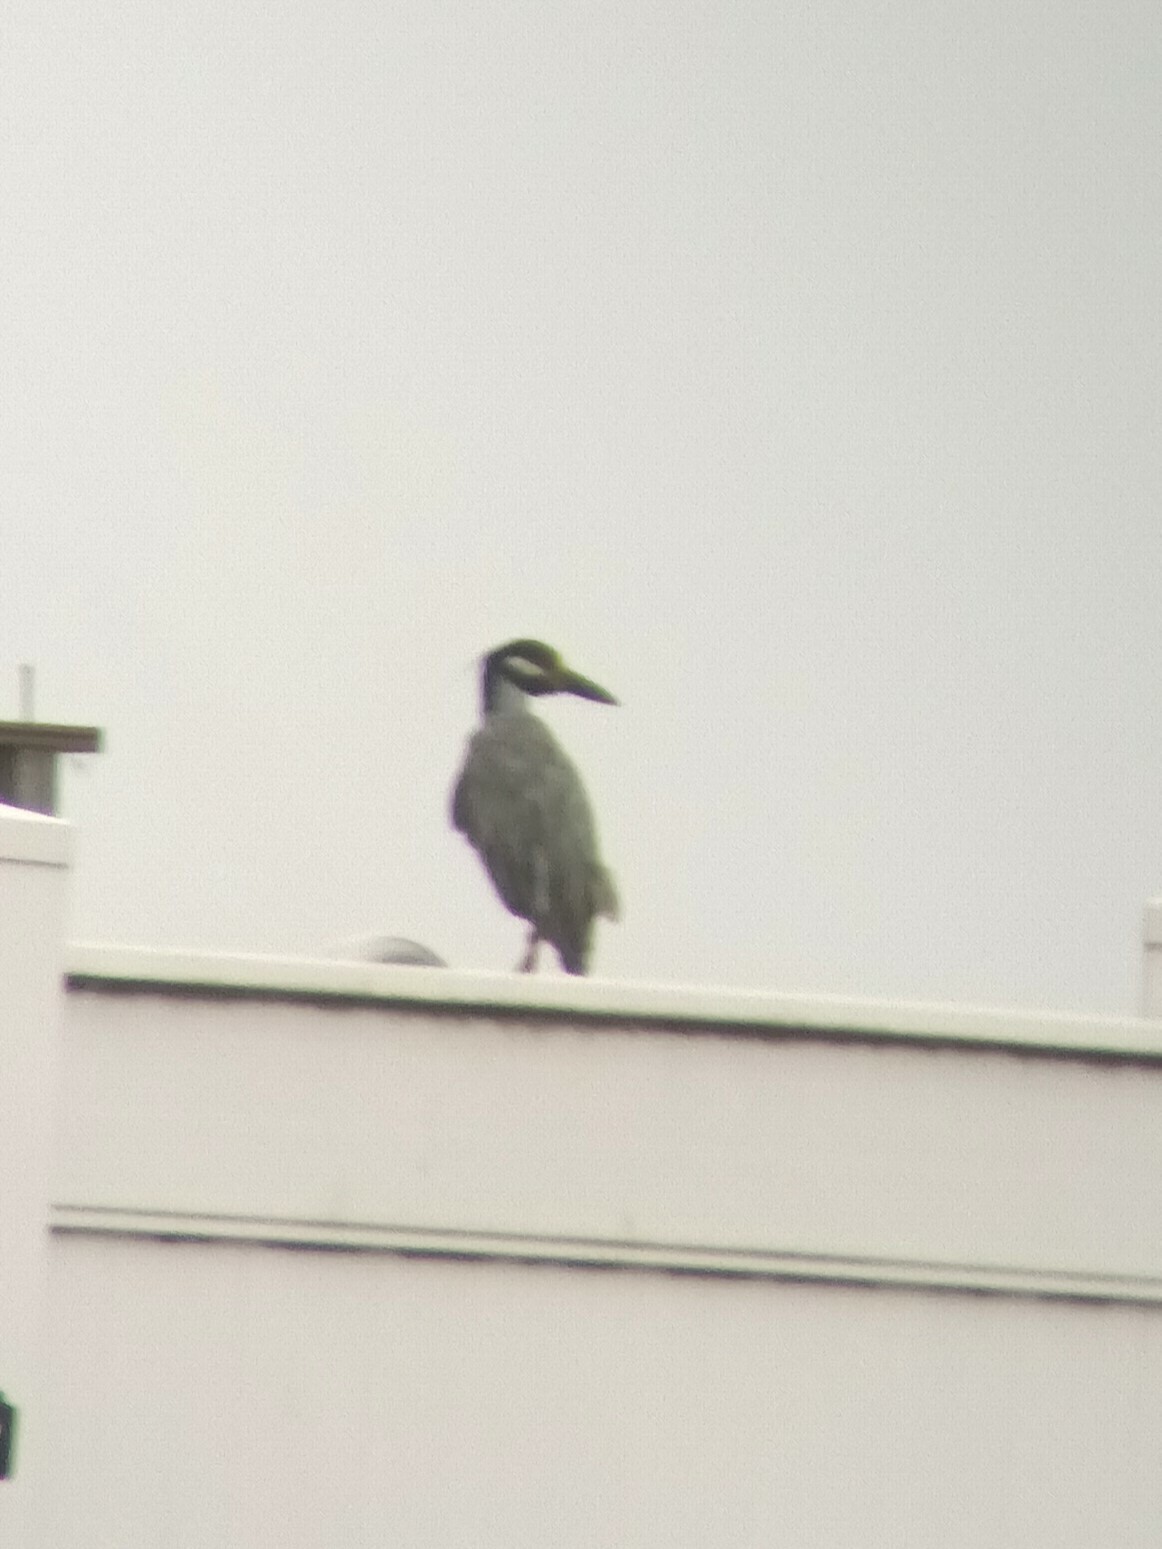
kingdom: Animalia
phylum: Chordata
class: Aves
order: Pelecaniformes
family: Ardeidae
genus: Nyctanassa
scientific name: Nyctanassa violacea
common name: Yellow-crowned night heron
